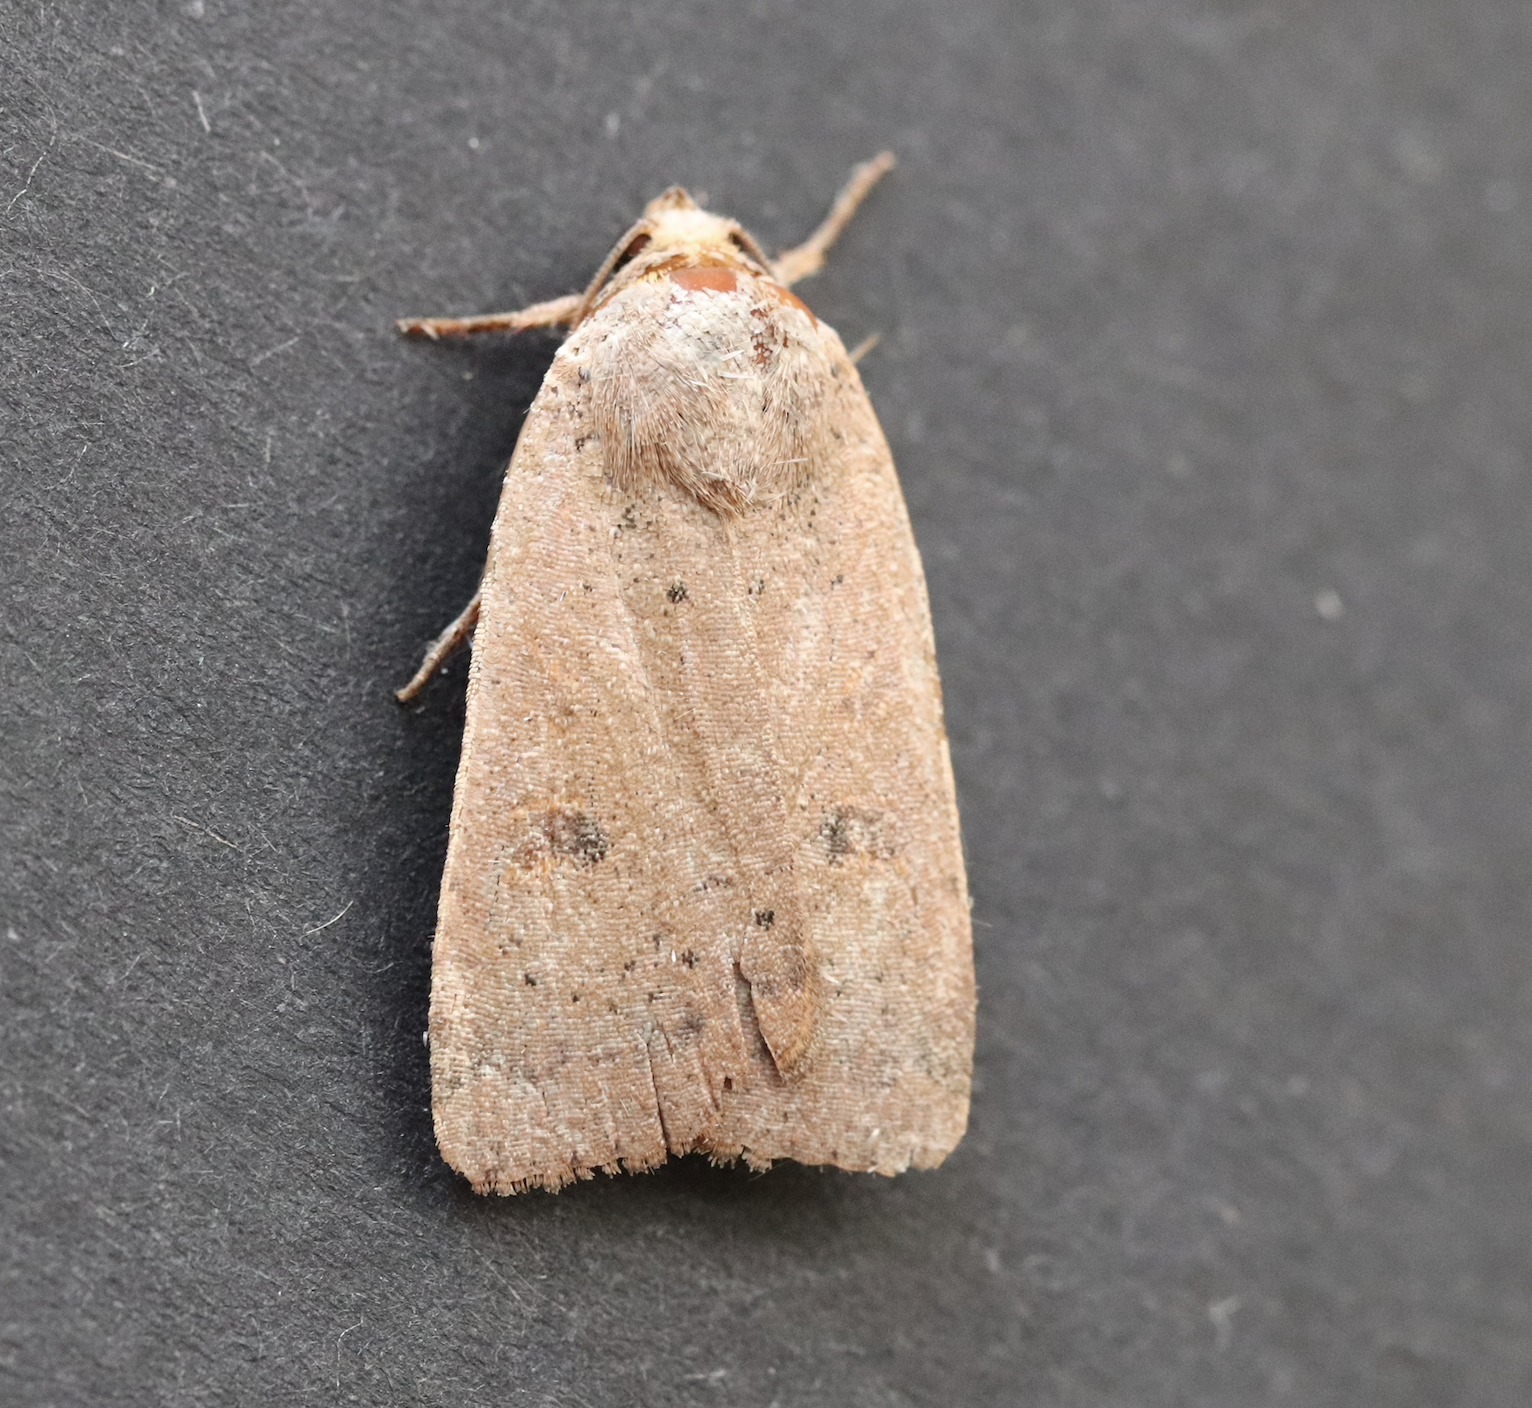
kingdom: Animalia
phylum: Arthropoda
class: Insecta
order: Lepidoptera
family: Noctuidae
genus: Noctua
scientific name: Noctua comes
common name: Lesser yellow underwing
